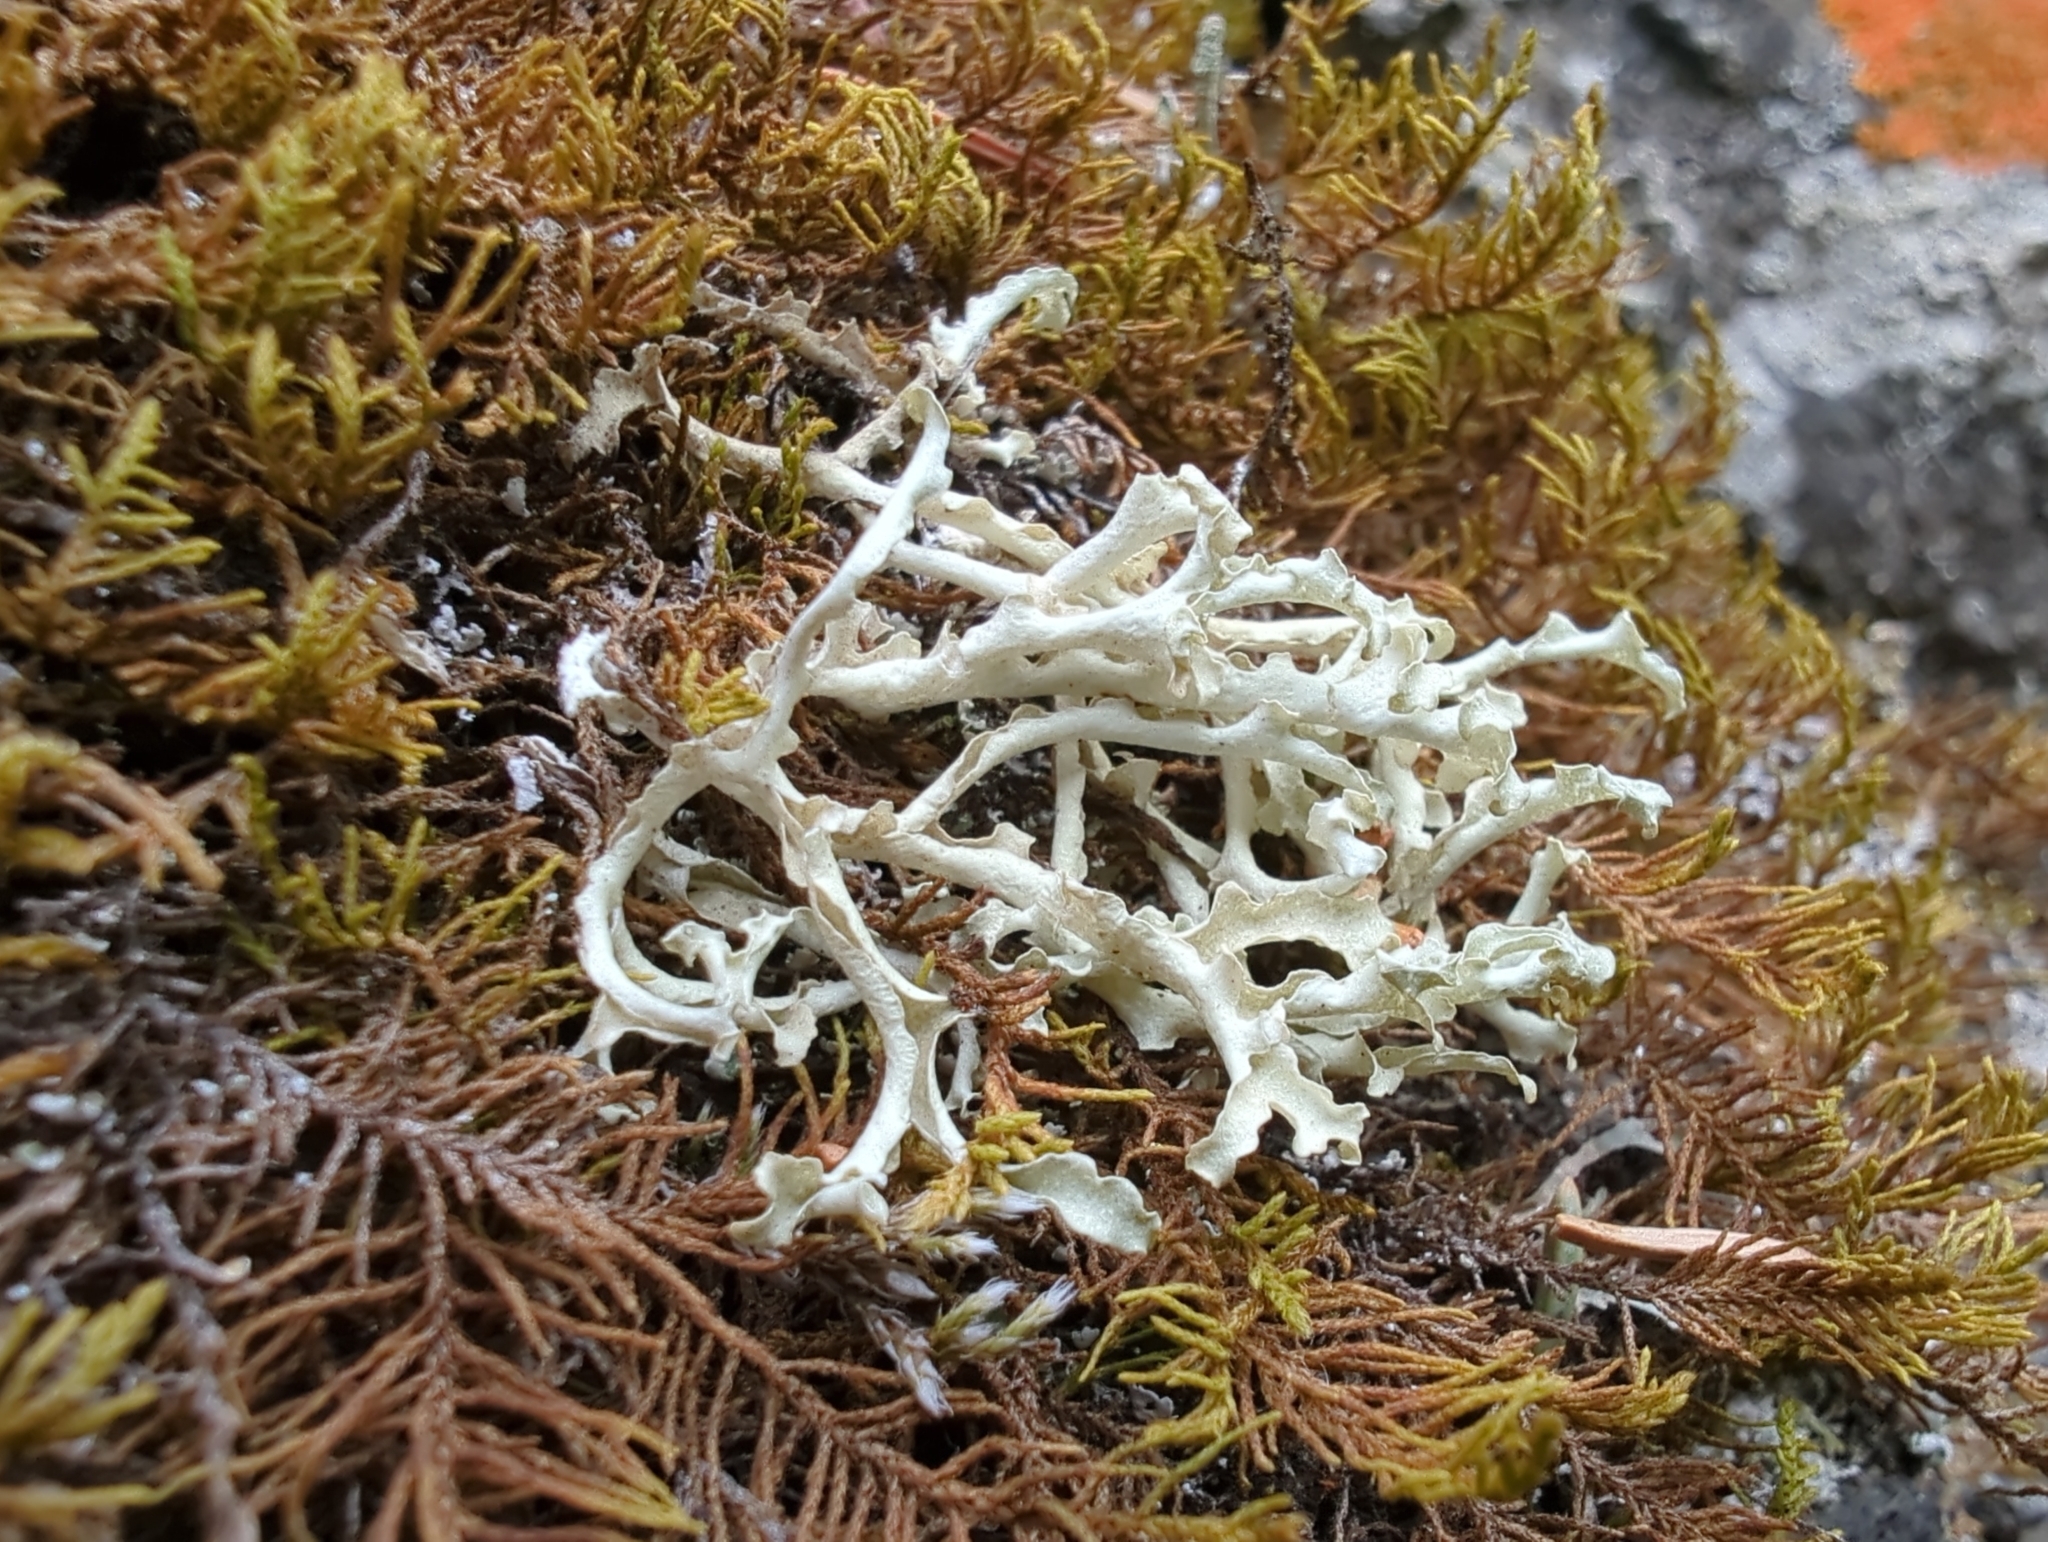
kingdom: Fungi
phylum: Ascomycota
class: Lecanoromycetes
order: Lecanorales
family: Parmeliaceae
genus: Nephromopsis
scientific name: Nephromopsis cucullata
